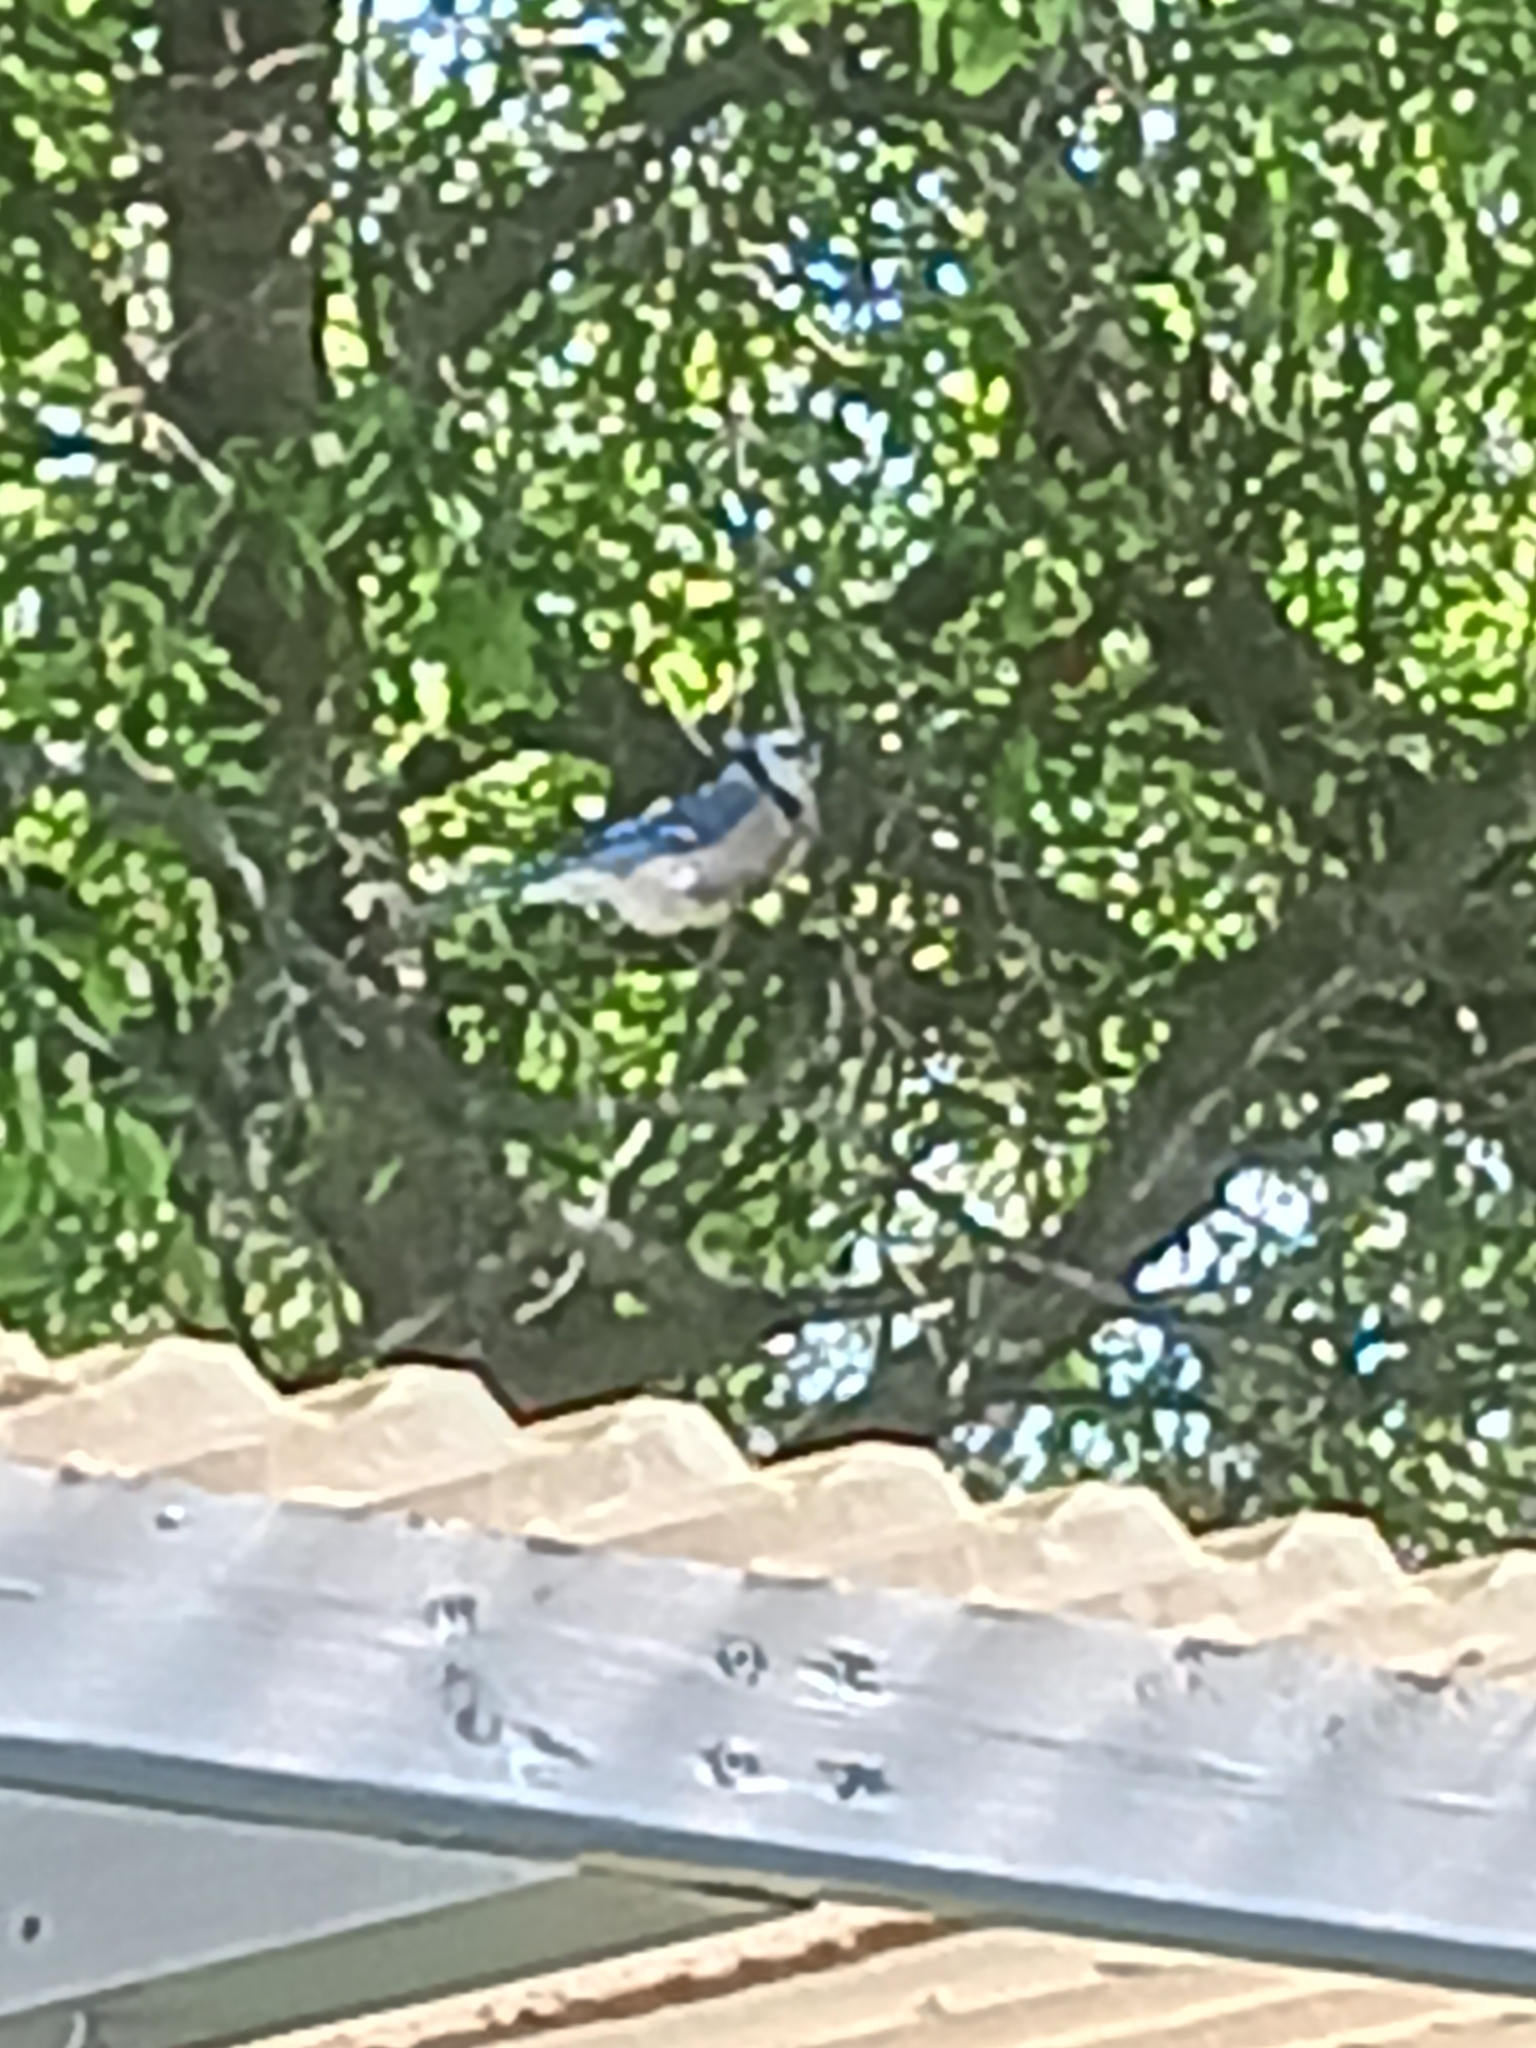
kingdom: Animalia
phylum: Chordata
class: Aves
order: Passeriformes
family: Corvidae
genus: Cyanocitta
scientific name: Cyanocitta cristata
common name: Blue jay
